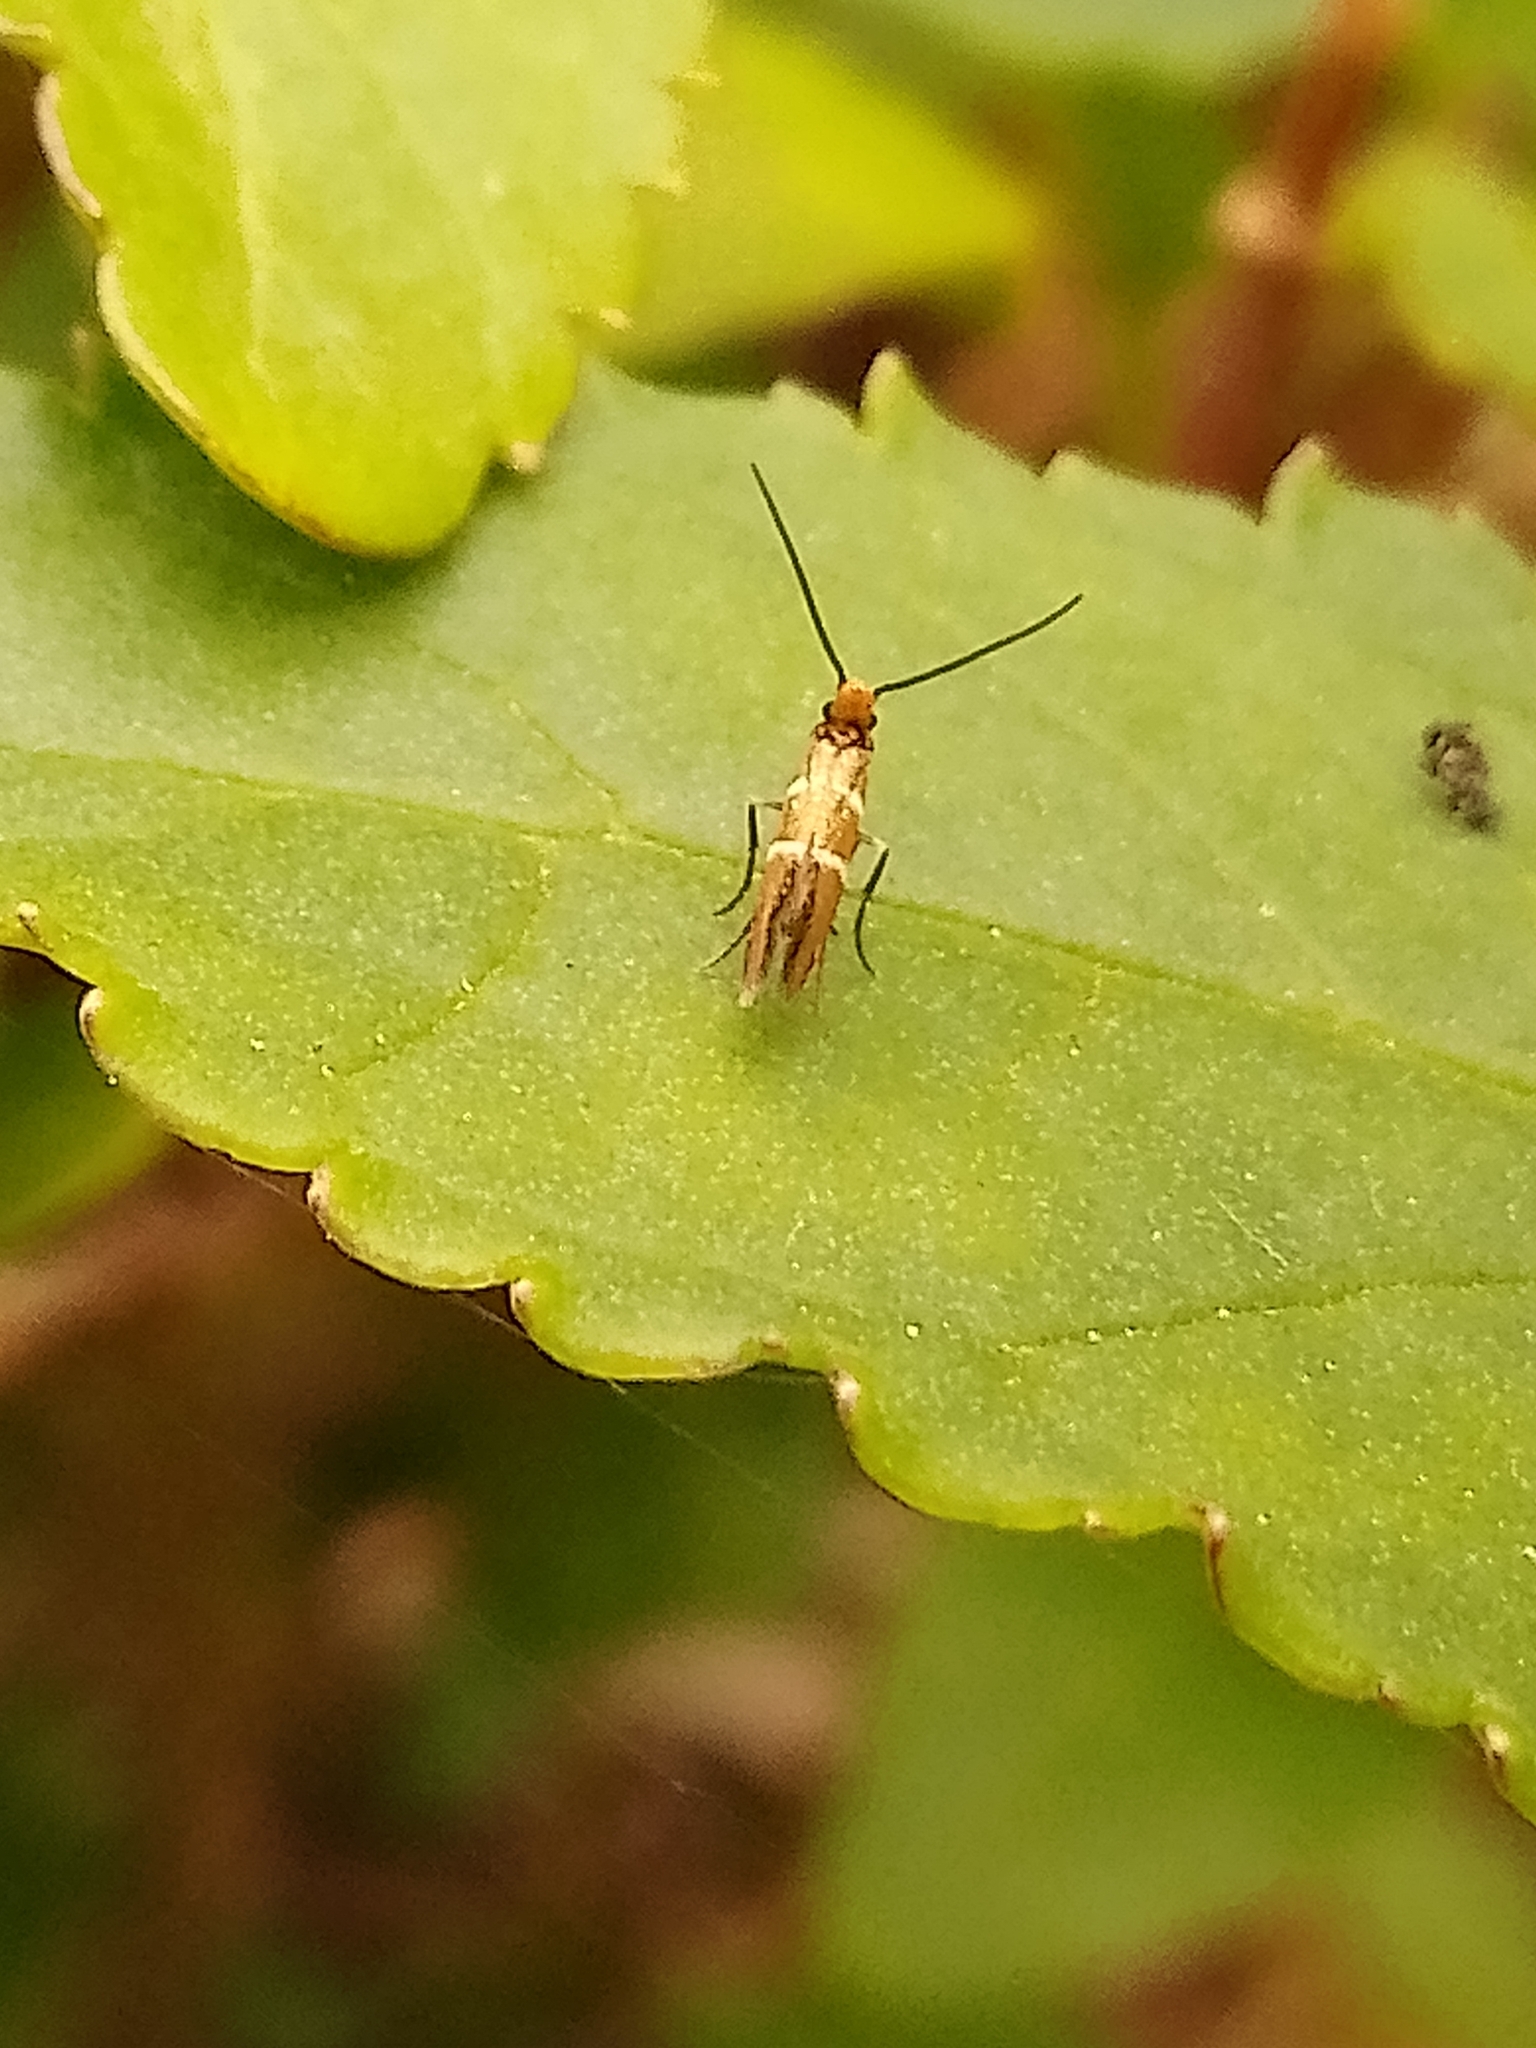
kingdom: Animalia
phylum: Arthropoda
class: Insecta
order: Lepidoptera
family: Micropterigidae
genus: Micropterix
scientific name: Micropterix aruncella
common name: White-barred gold
